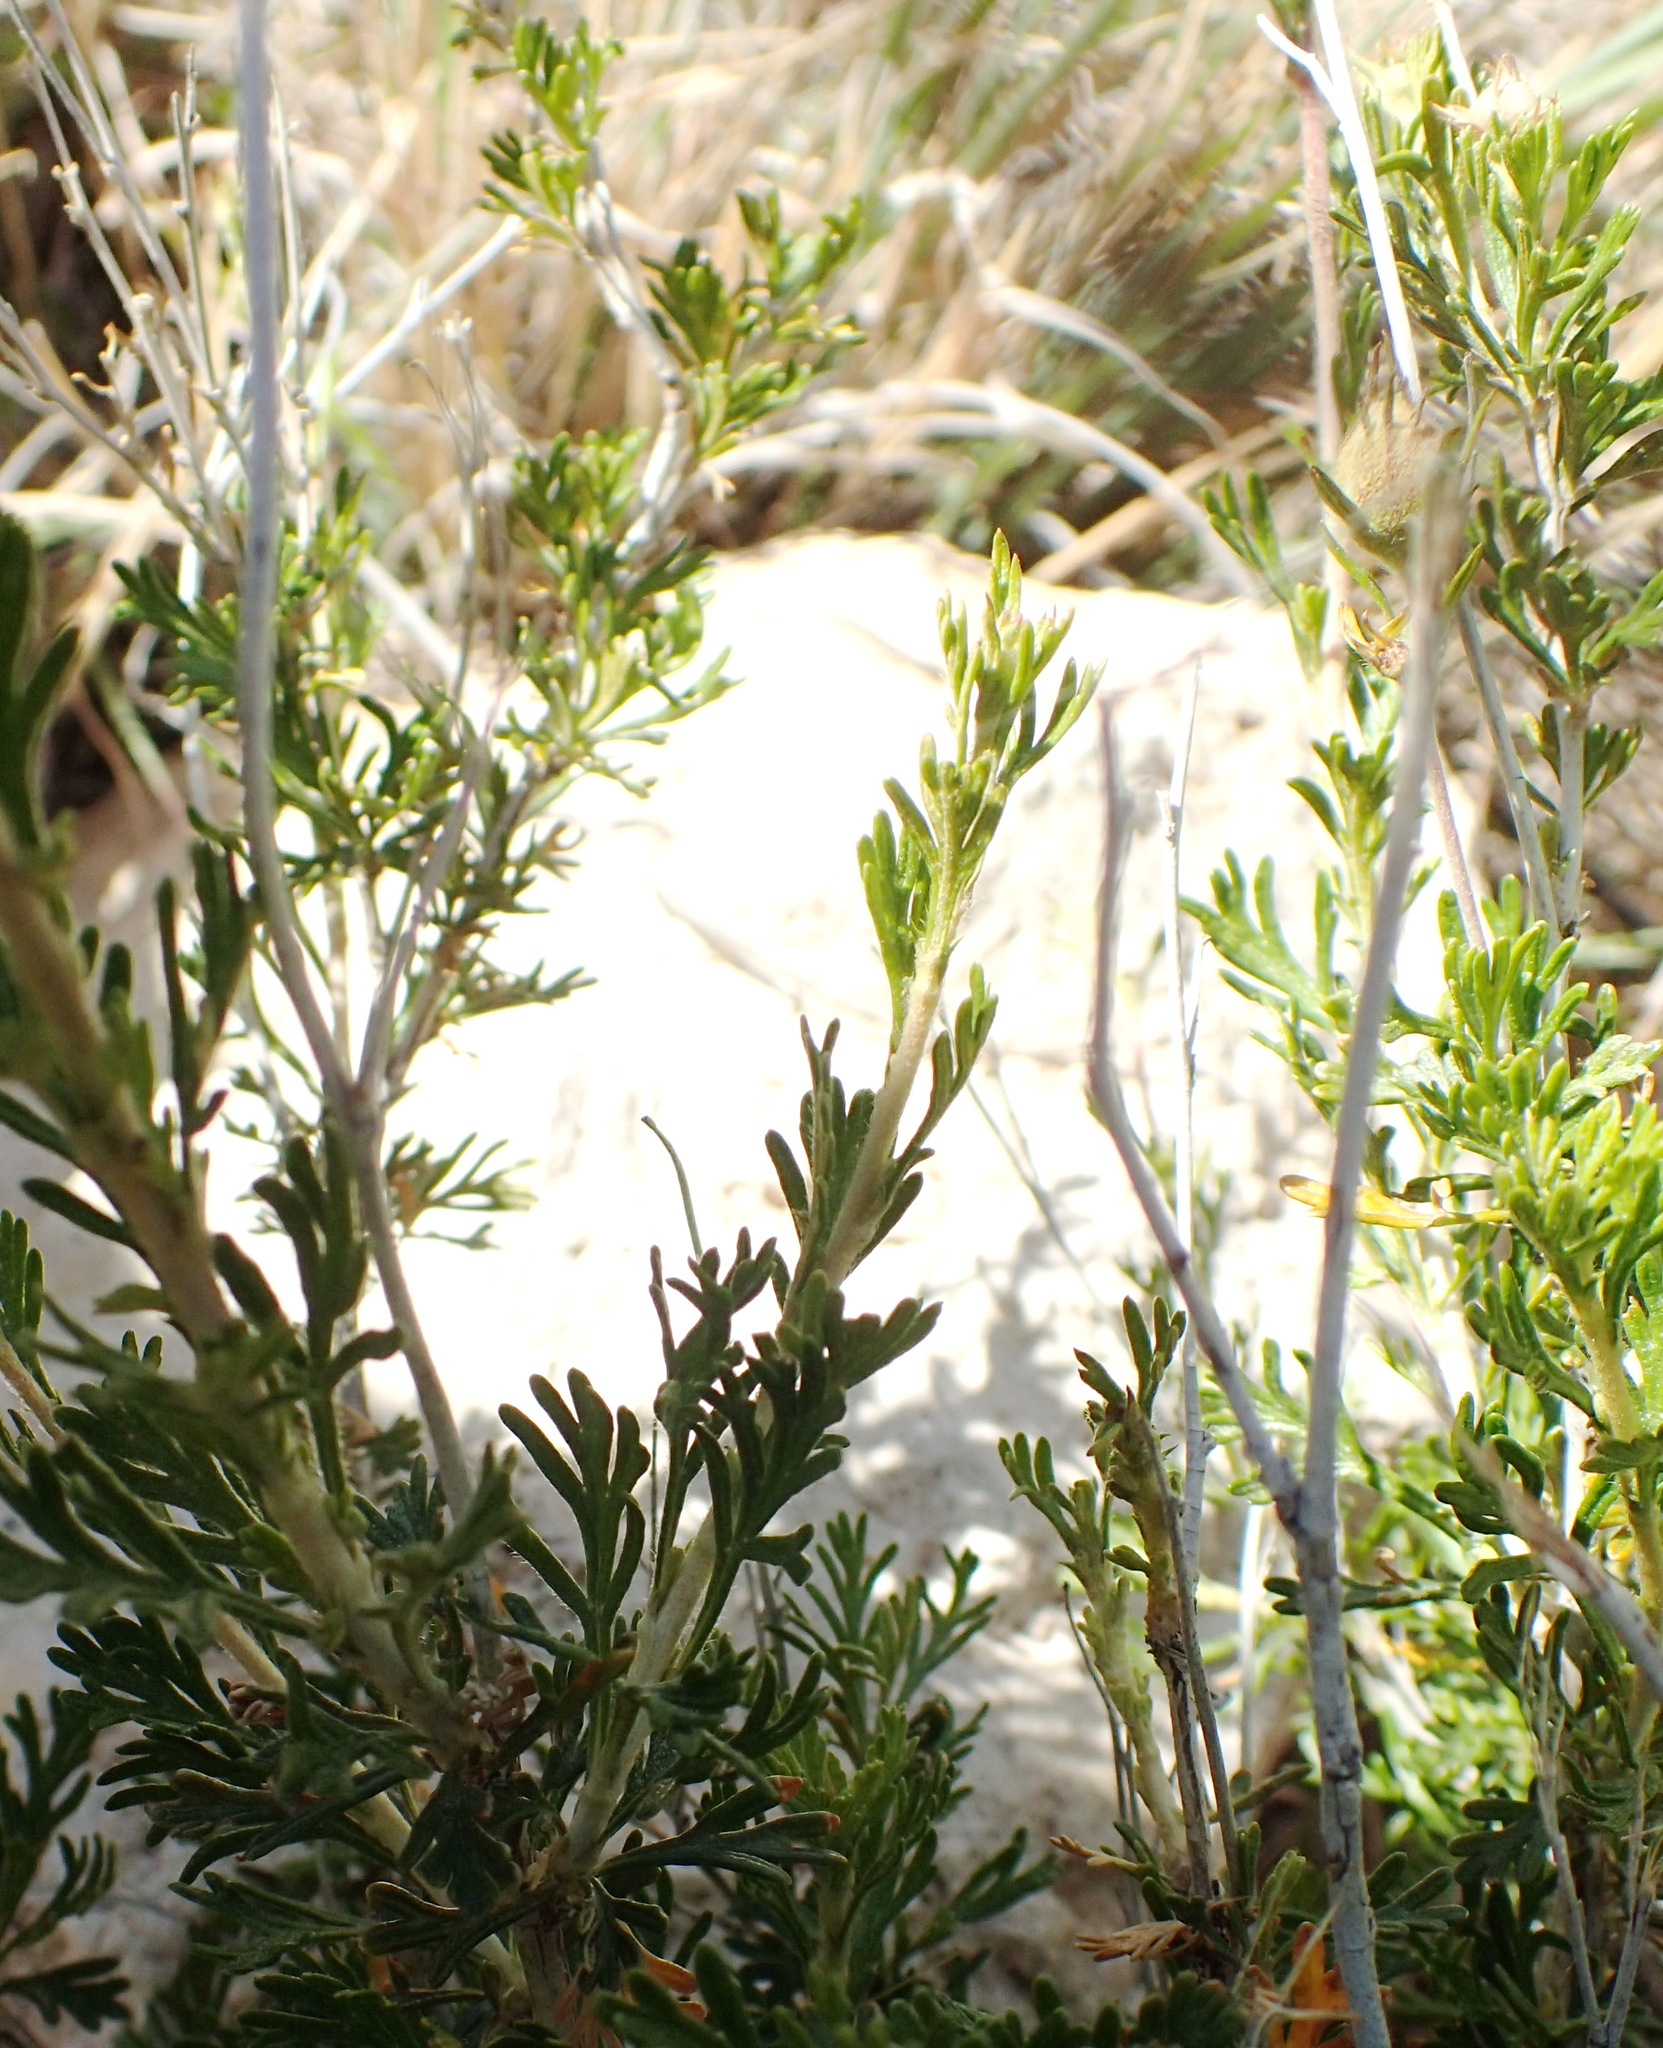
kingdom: Plantae
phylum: Tracheophyta
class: Magnoliopsida
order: Rosales
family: Rosaceae
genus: Fallugia
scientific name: Fallugia paradoxa
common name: Apache-plume
